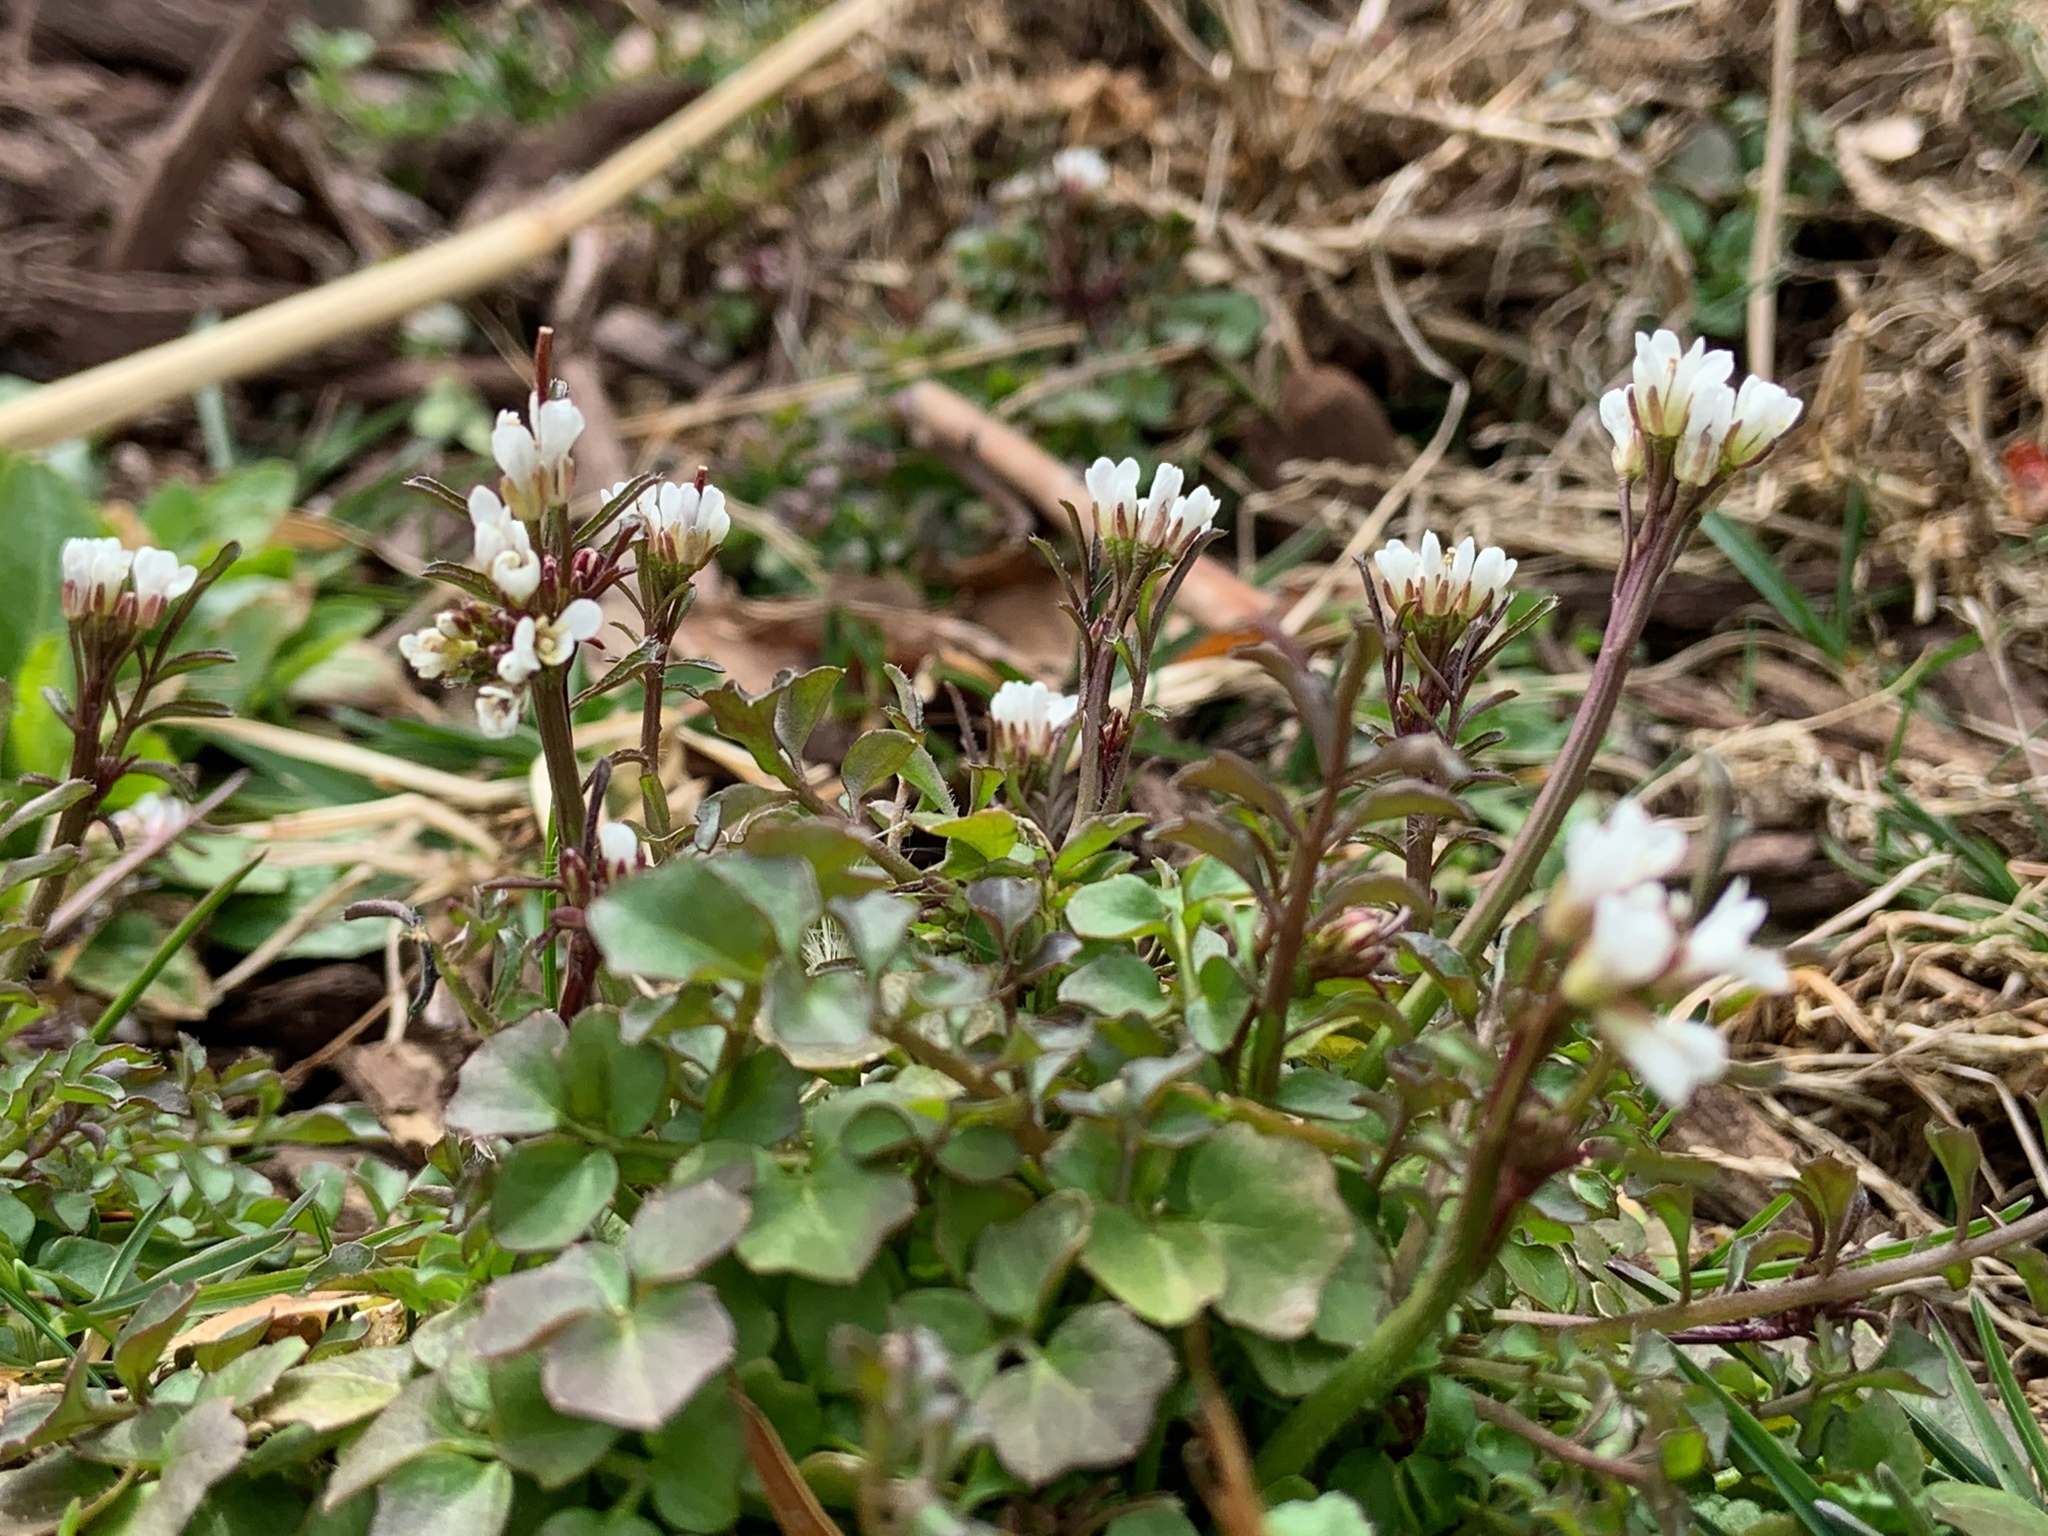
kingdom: Plantae
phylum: Tracheophyta
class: Magnoliopsida
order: Brassicales
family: Brassicaceae
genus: Cardamine
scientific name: Cardamine hirsuta
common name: Hairy bittercress
